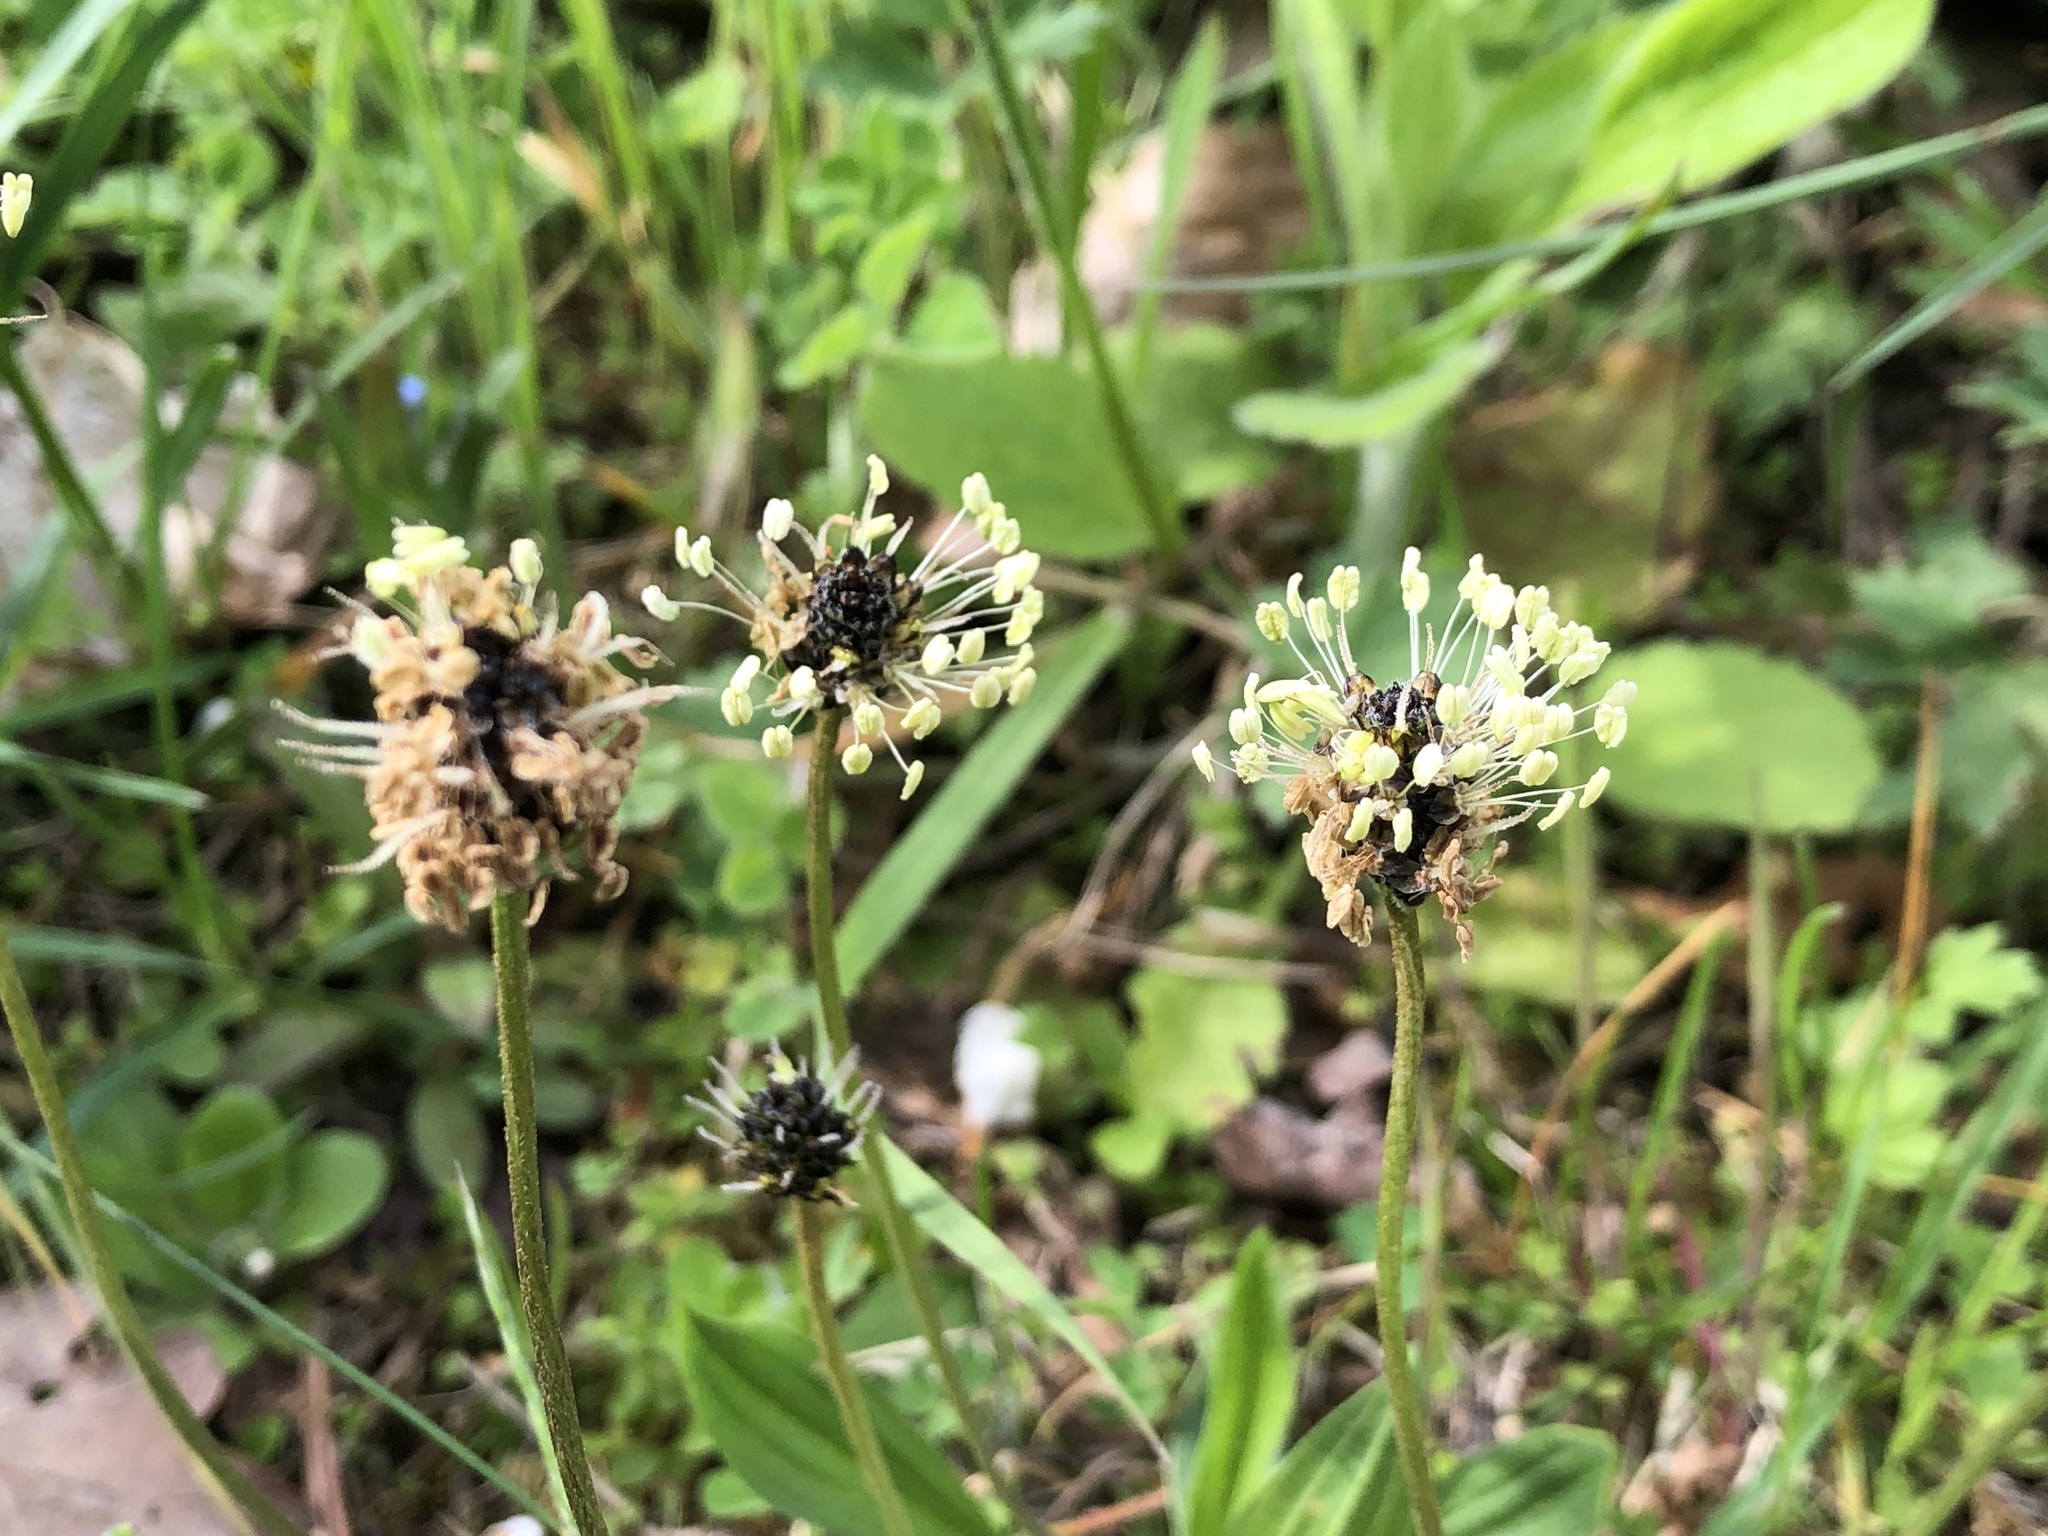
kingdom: Plantae
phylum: Tracheophyta
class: Magnoliopsida
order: Lamiales
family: Plantaginaceae
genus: Plantago
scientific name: Plantago lanceolata
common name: Ribwort plantain
